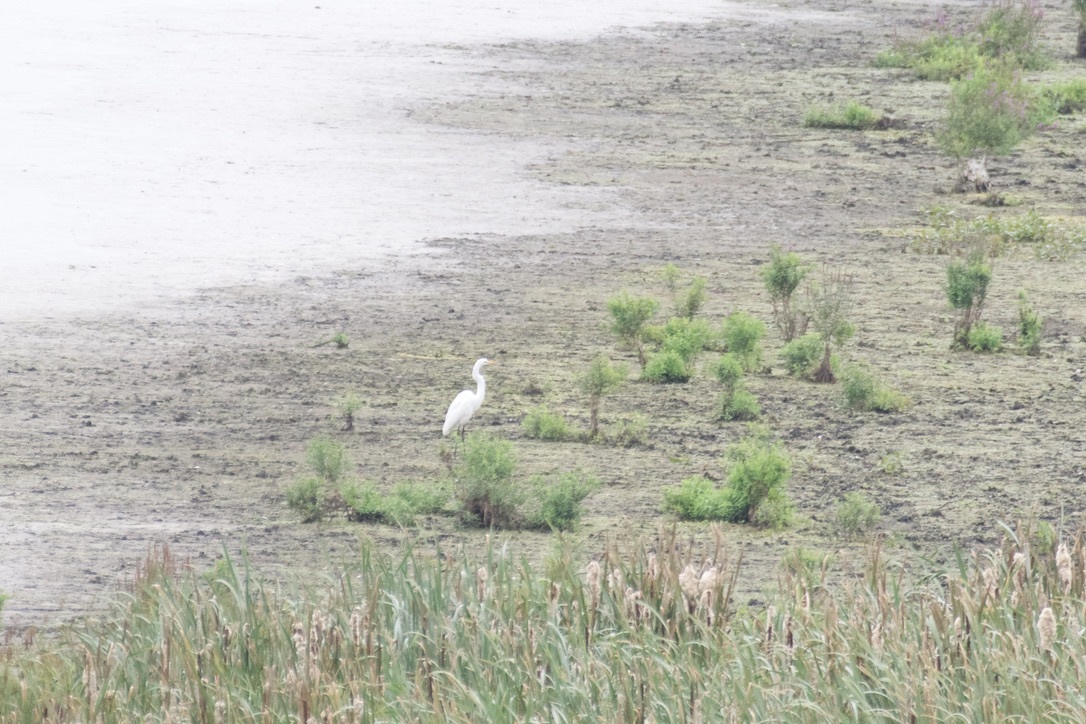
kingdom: Animalia
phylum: Chordata
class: Aves
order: Pelecaniformes
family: Ardeidae
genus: Ardea
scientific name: Ardea alba
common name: Great egret
